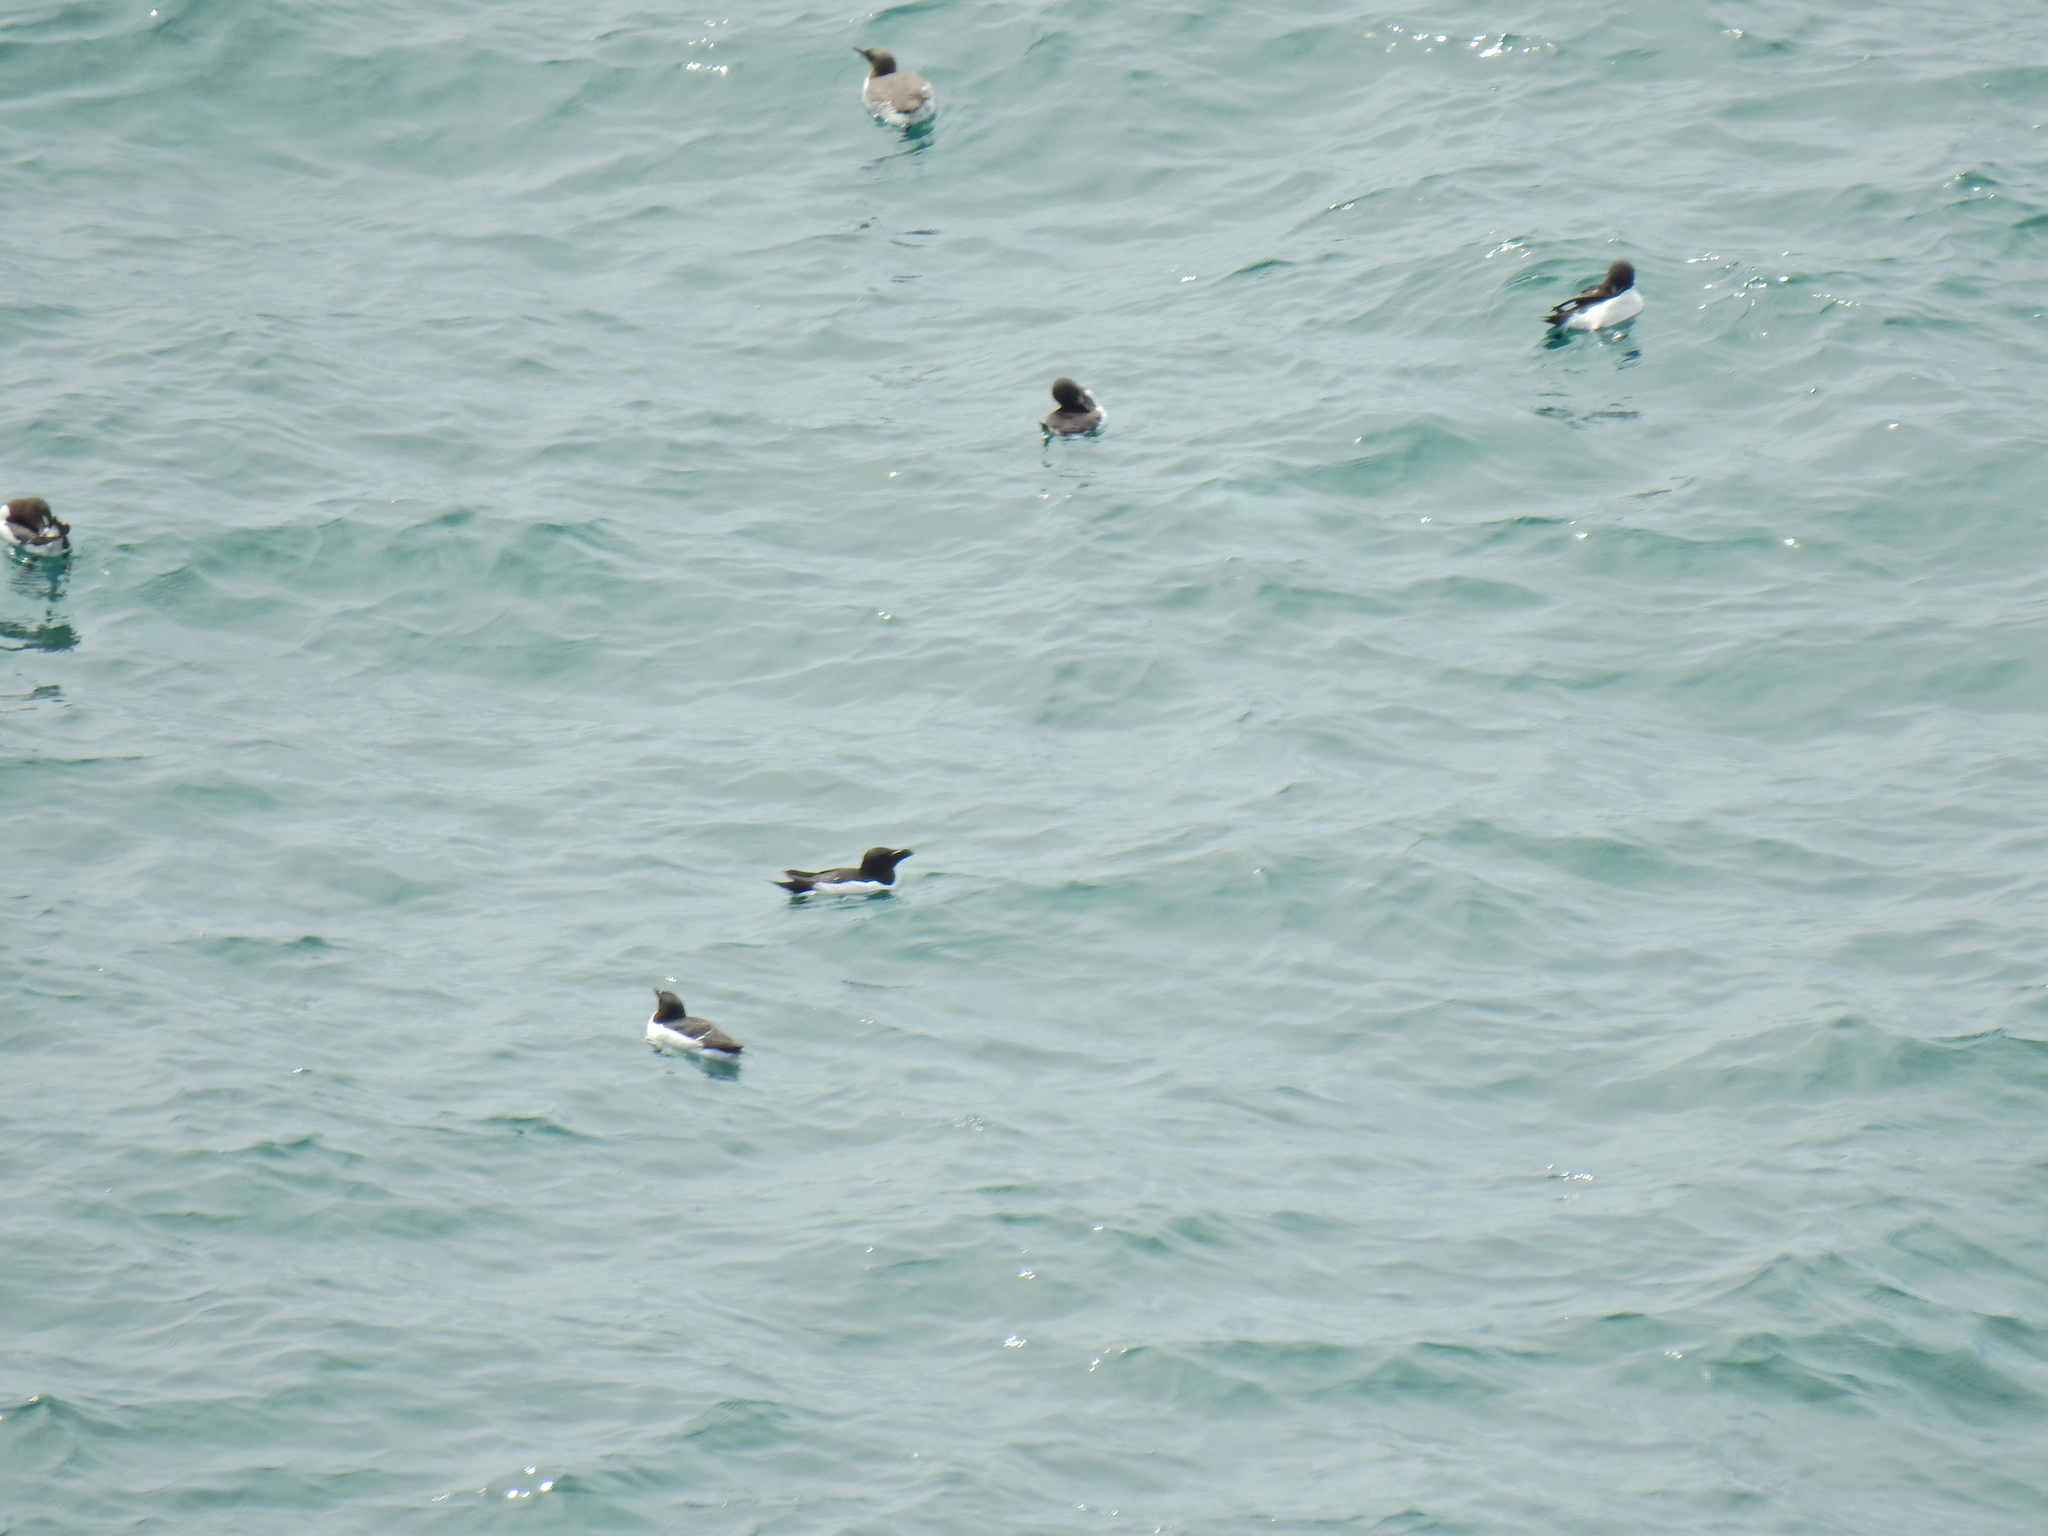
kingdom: Animalia
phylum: Chordata
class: Aves
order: Charadriiformes
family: Alcidae
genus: Alca
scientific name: Alca torda
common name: Razorbill
